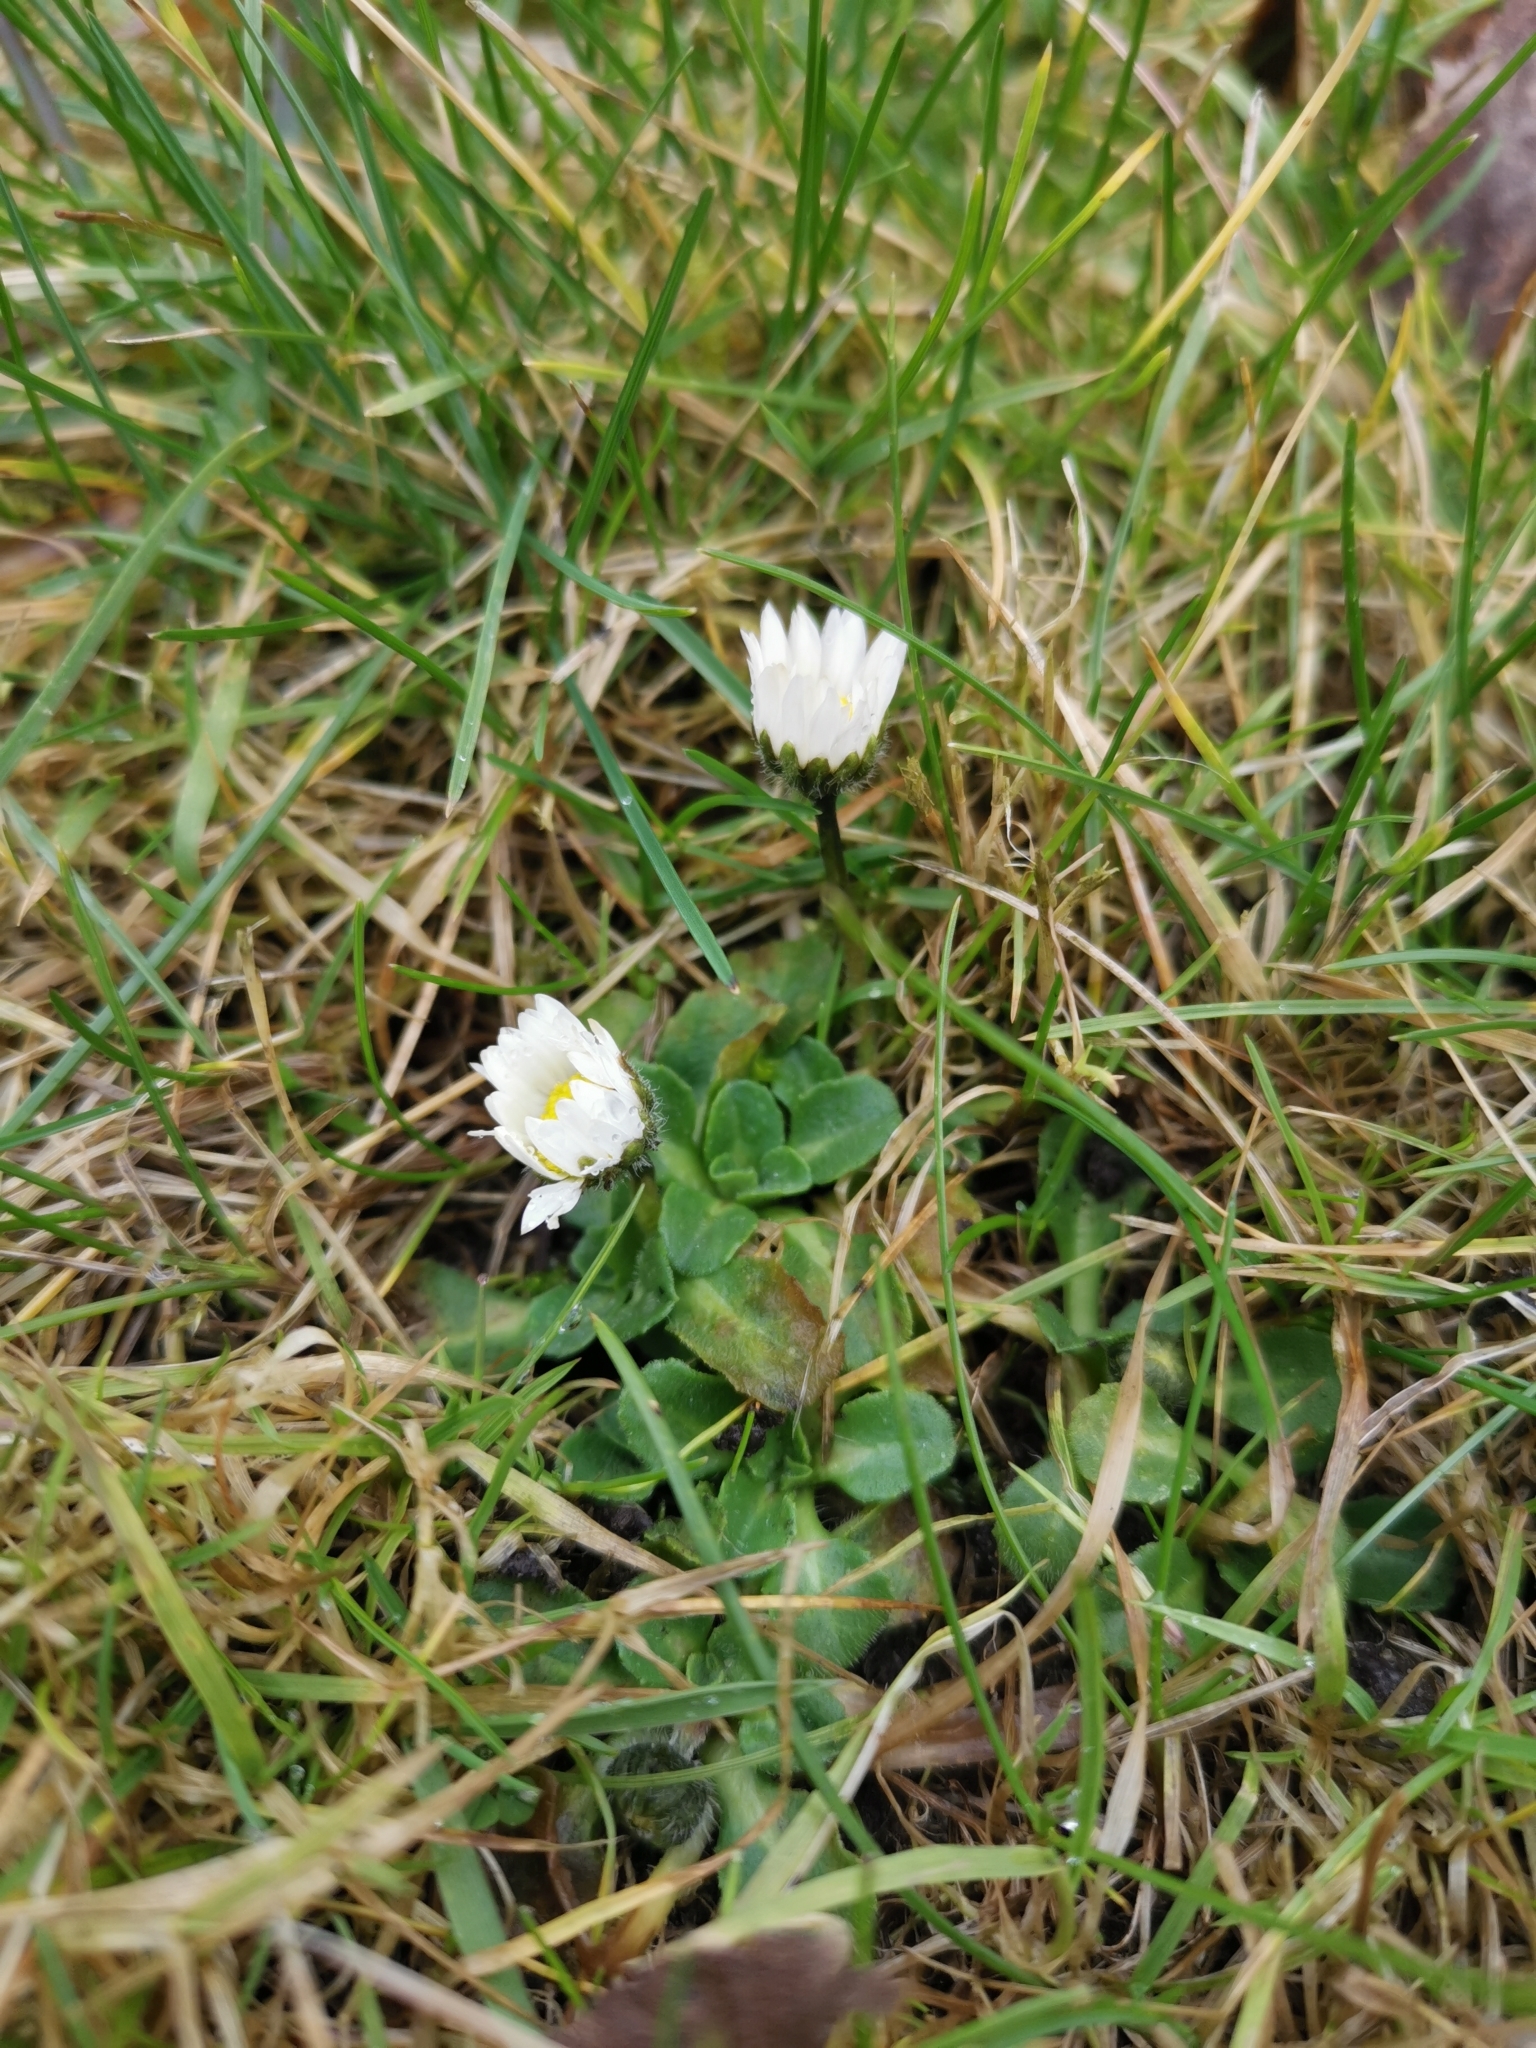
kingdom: Plantae
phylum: Tracheophyta
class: Magnoliopsida
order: Asterales
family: Asteraceae
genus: Bellis
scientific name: Bellis perennis
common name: Lawndaisy
